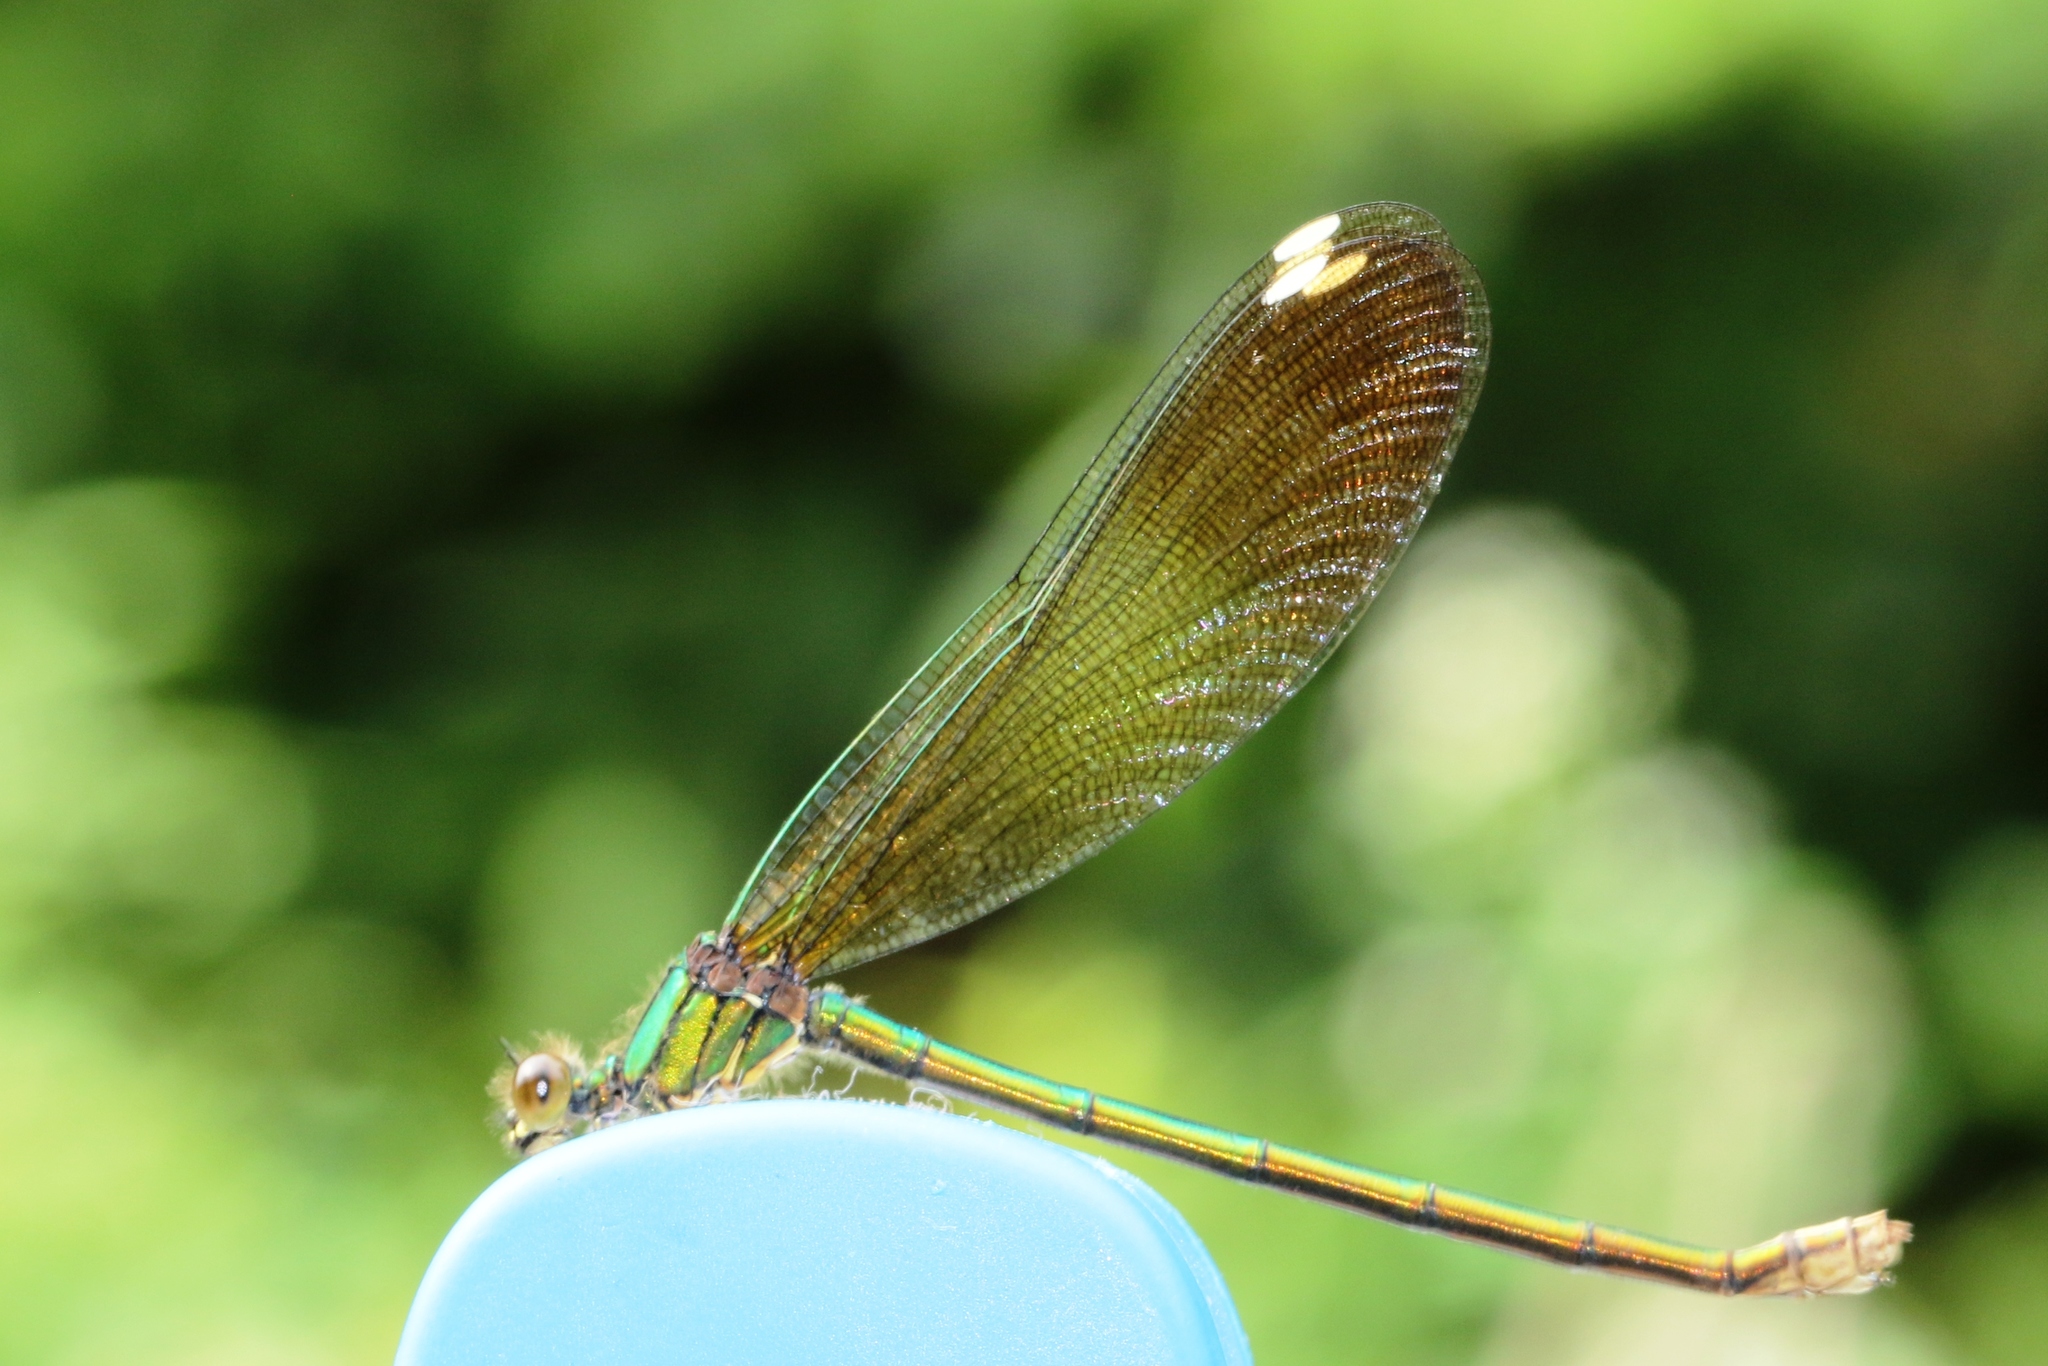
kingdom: Animalia
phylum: Arthropoda
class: Insecta
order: Odonata
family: Calopterygidae
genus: Calopteryx
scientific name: Calopteryx aequabilis
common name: River jewelwing
